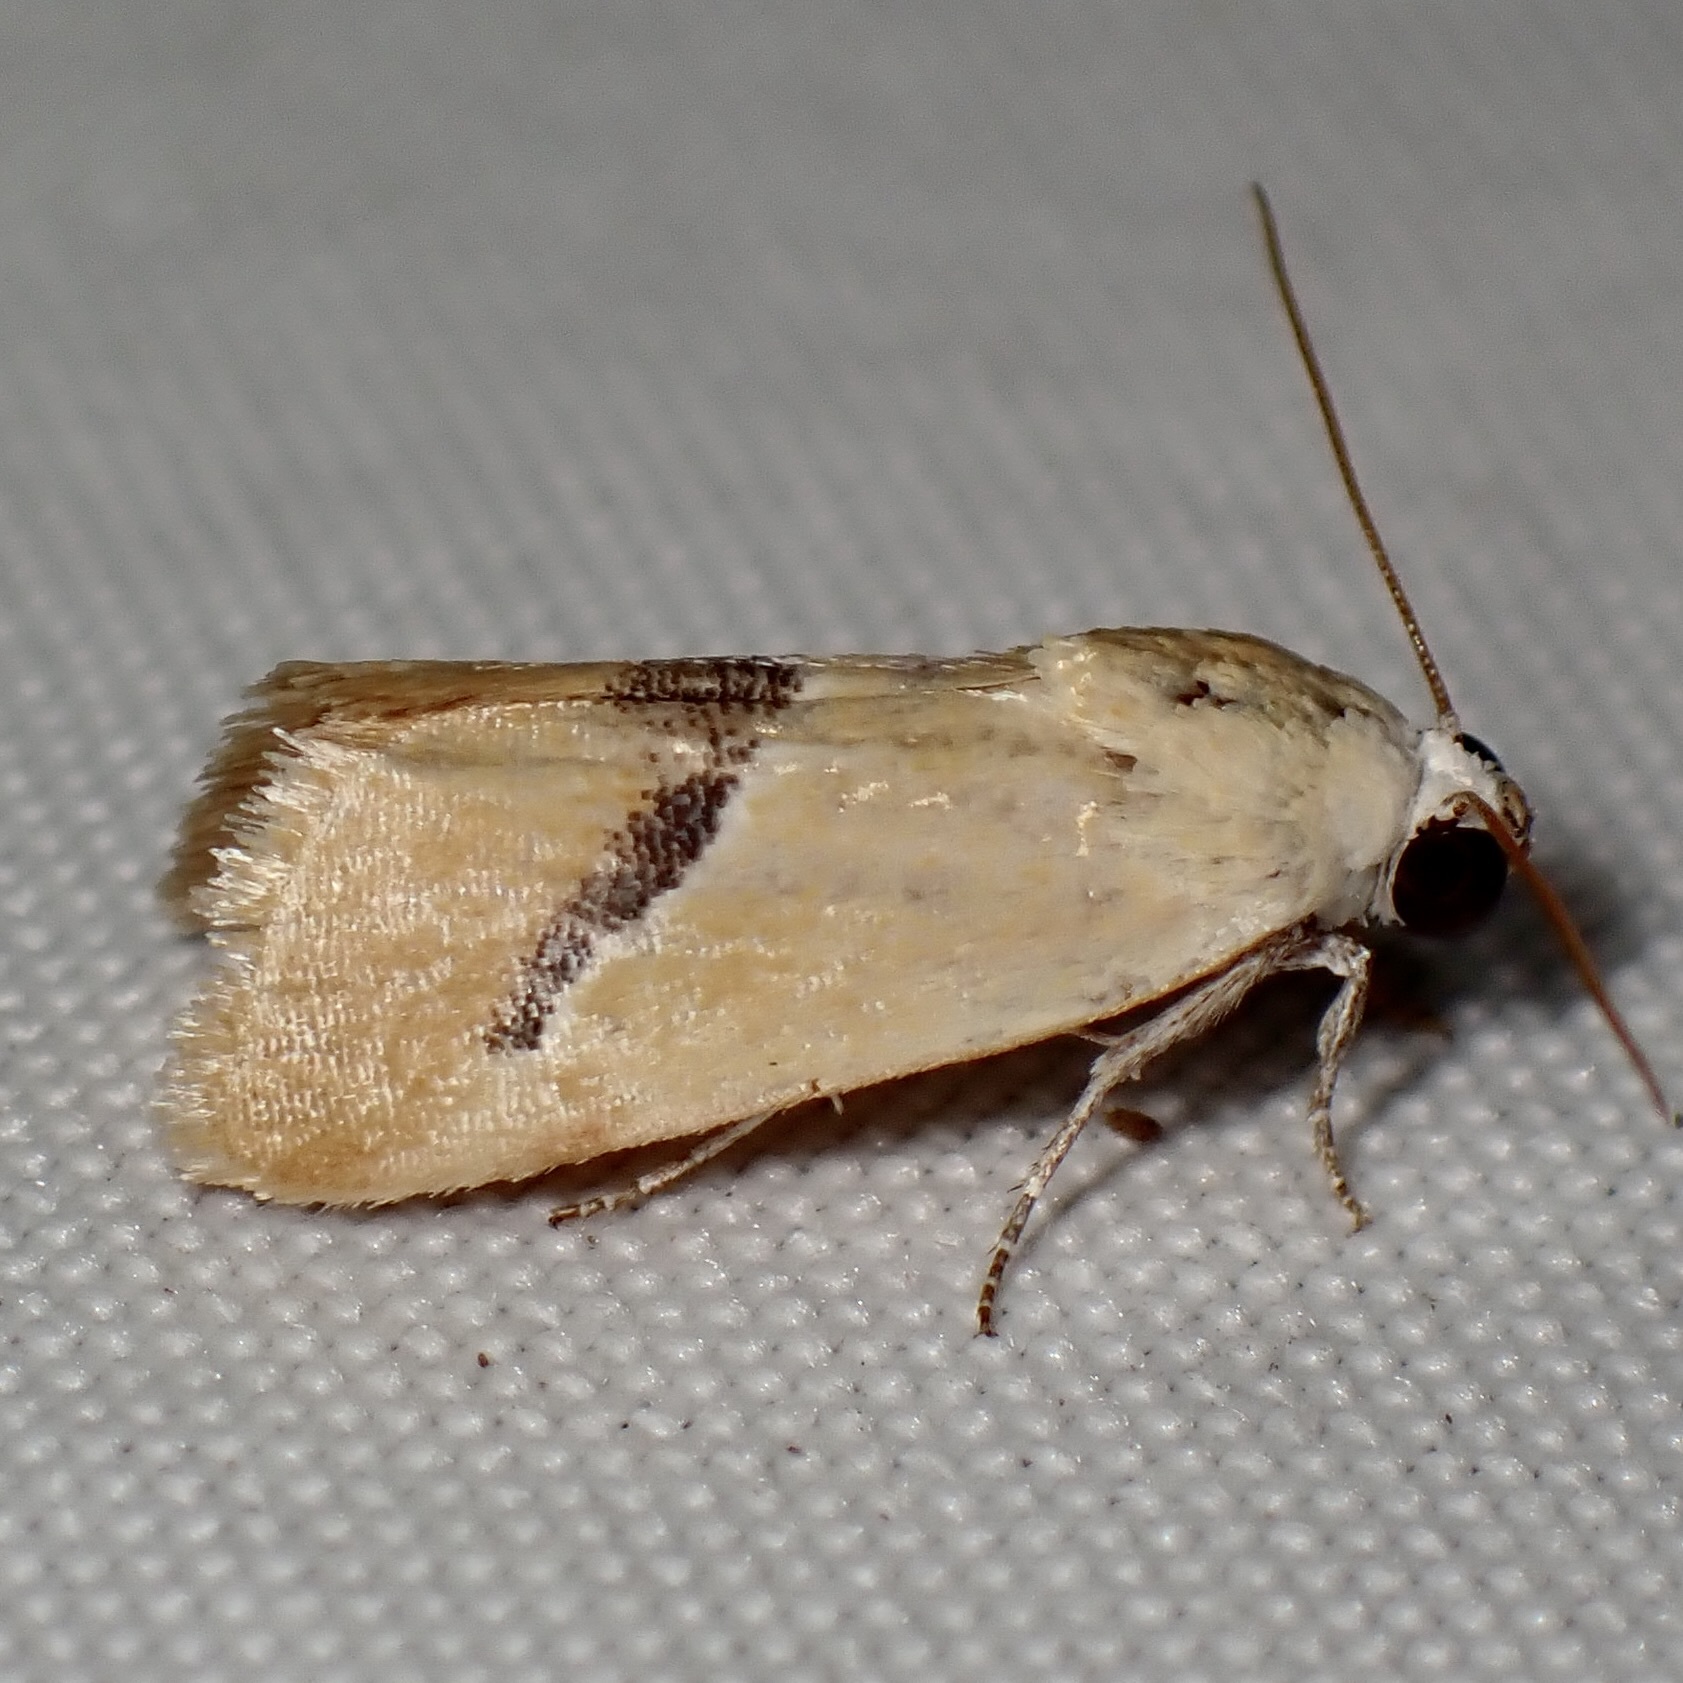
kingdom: Animalia
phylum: Arthropoda
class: Insecta
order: Lepidoptera
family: Noctuidae
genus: Ponometia
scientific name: Ponometia venustula
